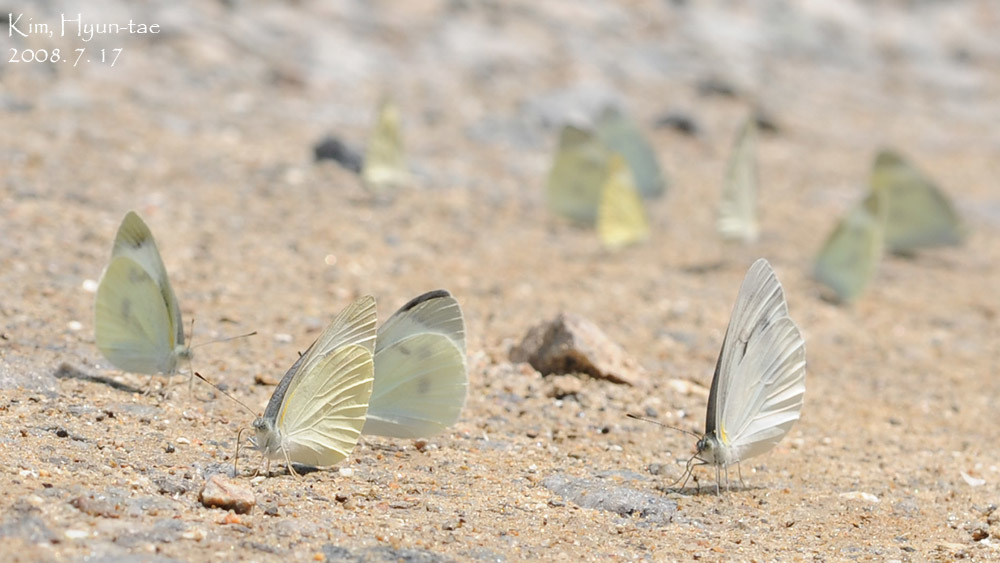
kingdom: Animalia
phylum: Arthropoda
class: Insecta
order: Lepidoptera
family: Pieridae
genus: Pieris
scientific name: Pieris rapae
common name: Small white
